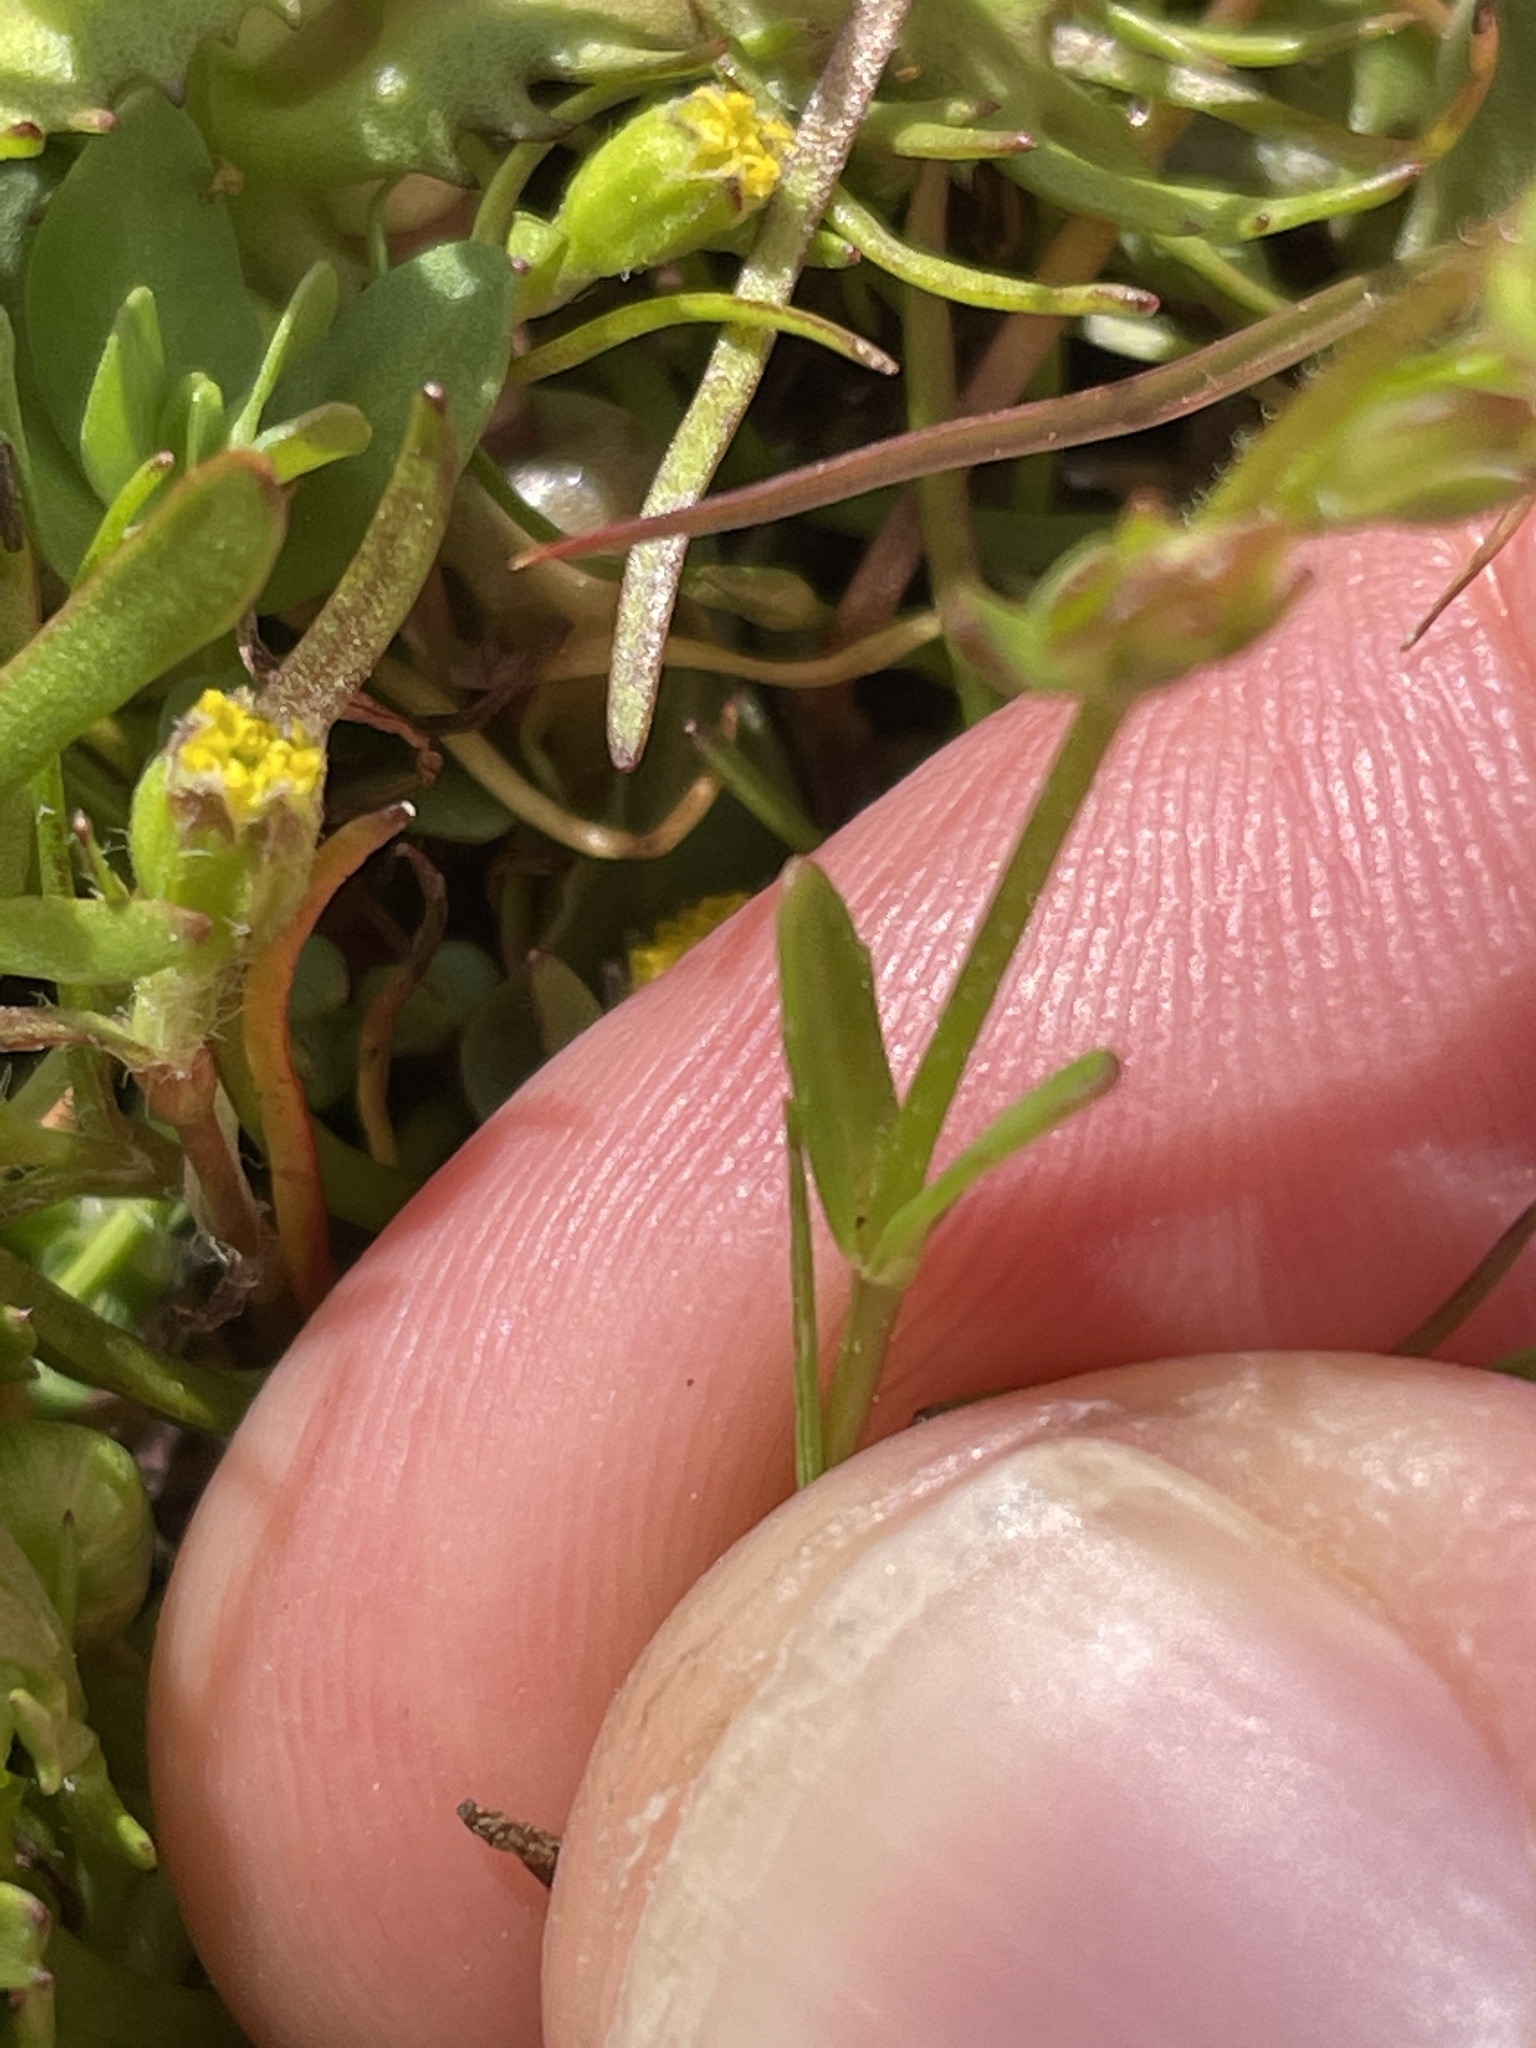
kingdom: Plantae
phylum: Tracheophyta
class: Magnoliopsida
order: Lamiales
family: Plantaginaceae
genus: Veronica
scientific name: Veronica peregrina
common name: Neckweed
